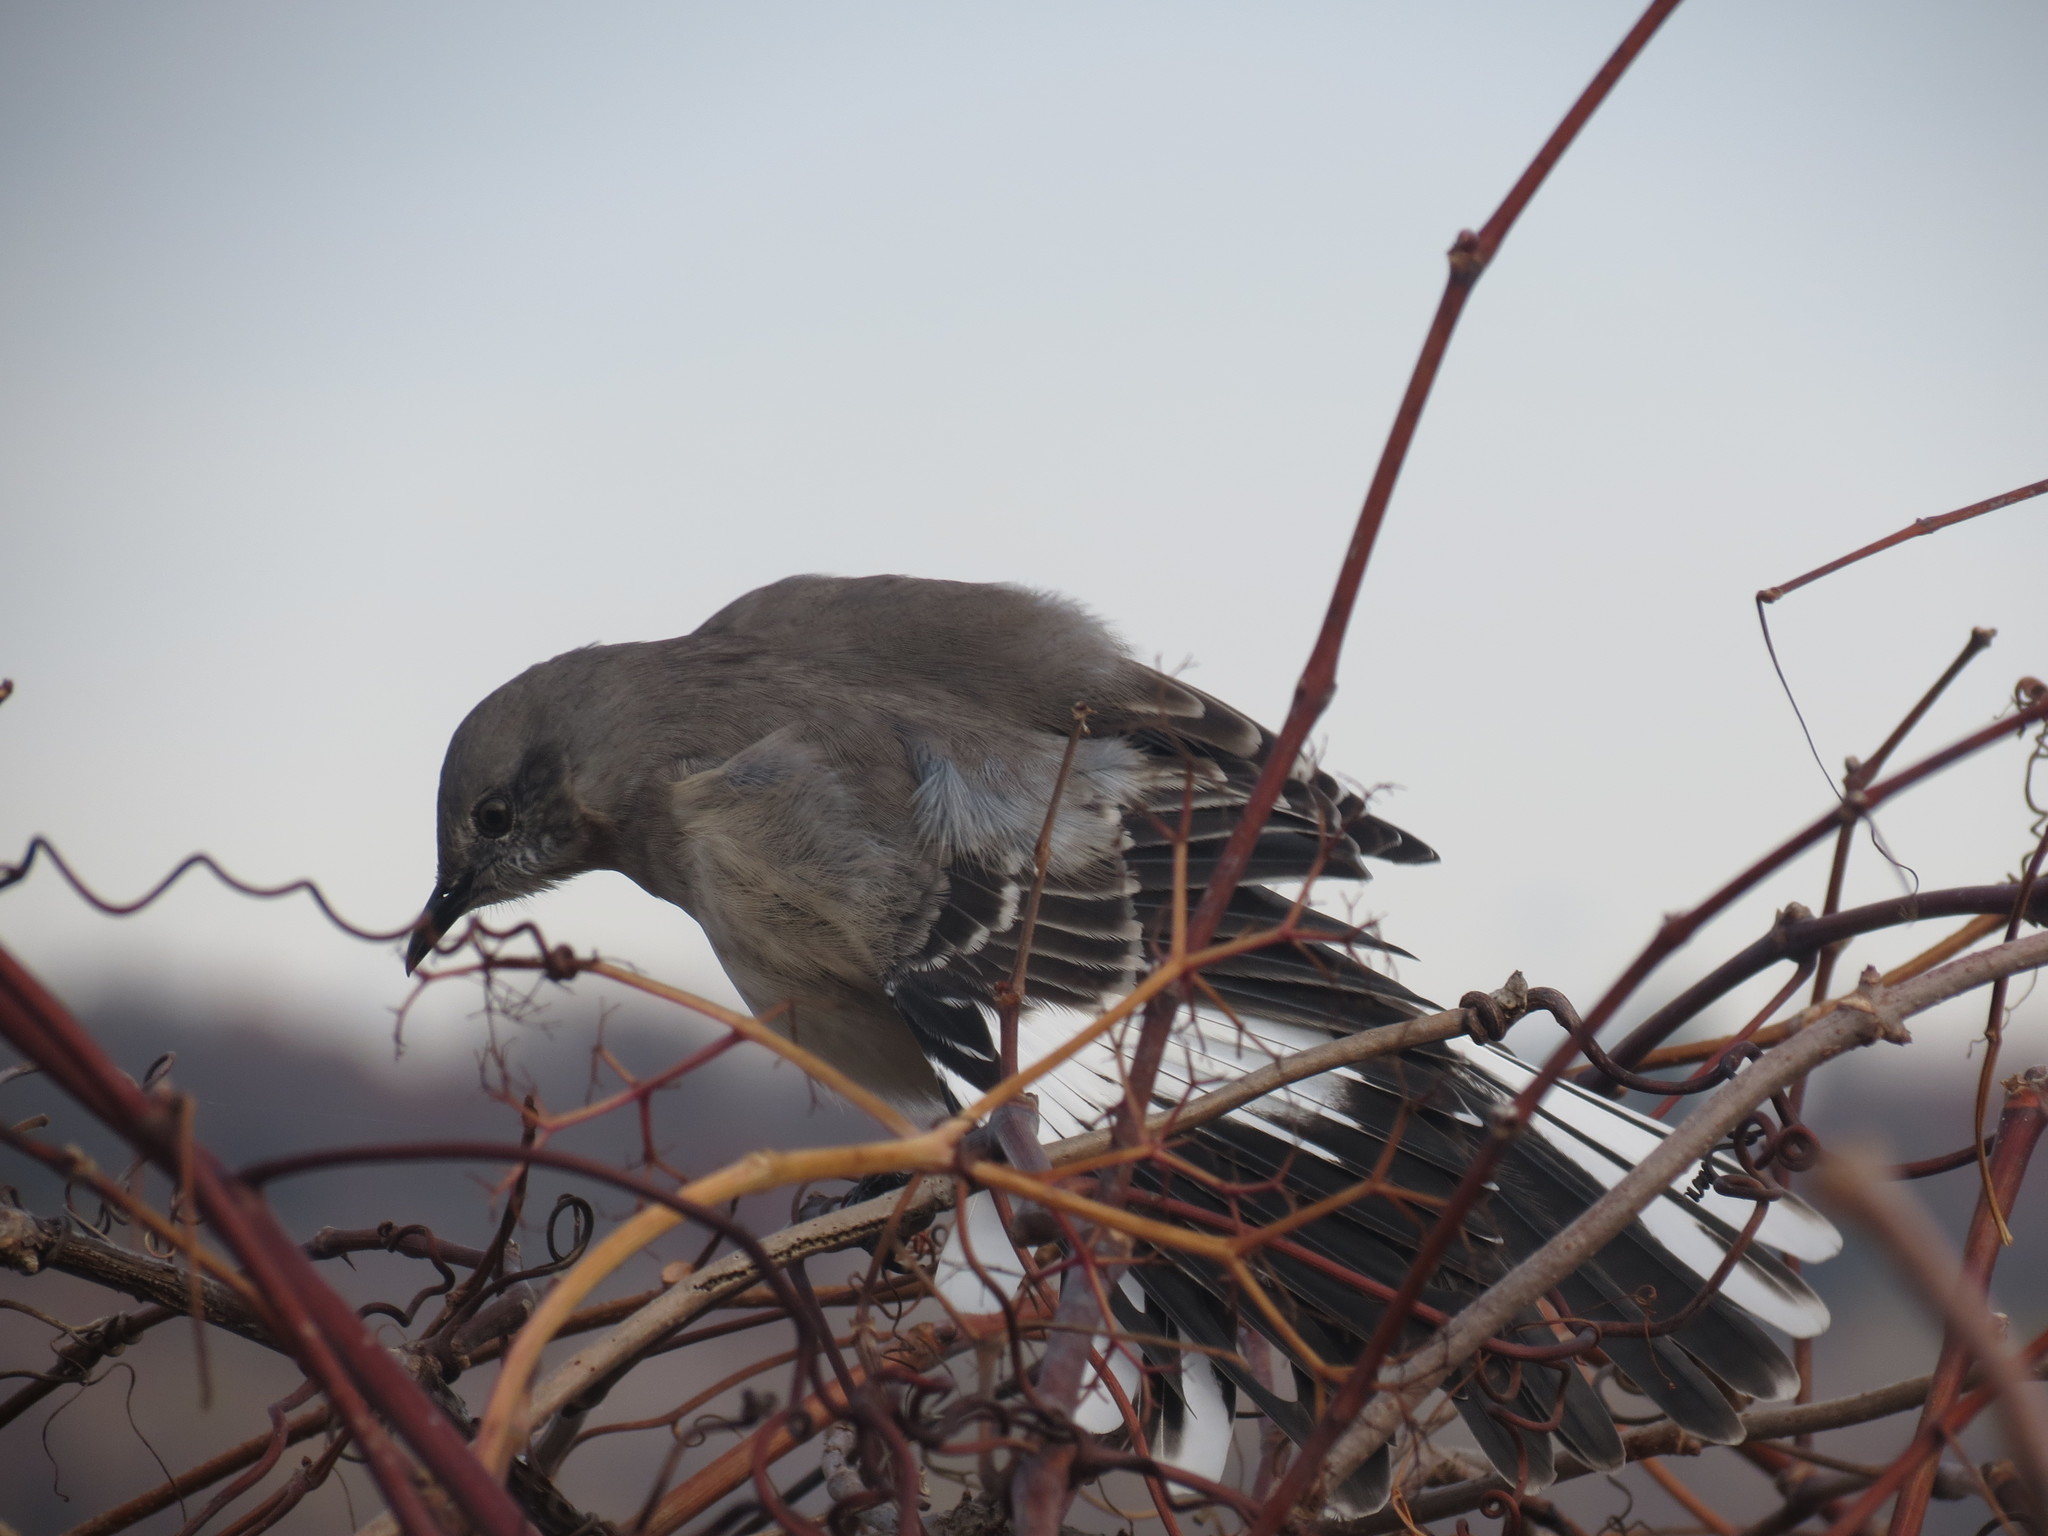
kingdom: Animalia
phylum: Chordata
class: Aves
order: Passeriformes
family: Mimidae
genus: Mimus
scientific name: Mimus polyglottos
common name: Northern mockingbird
